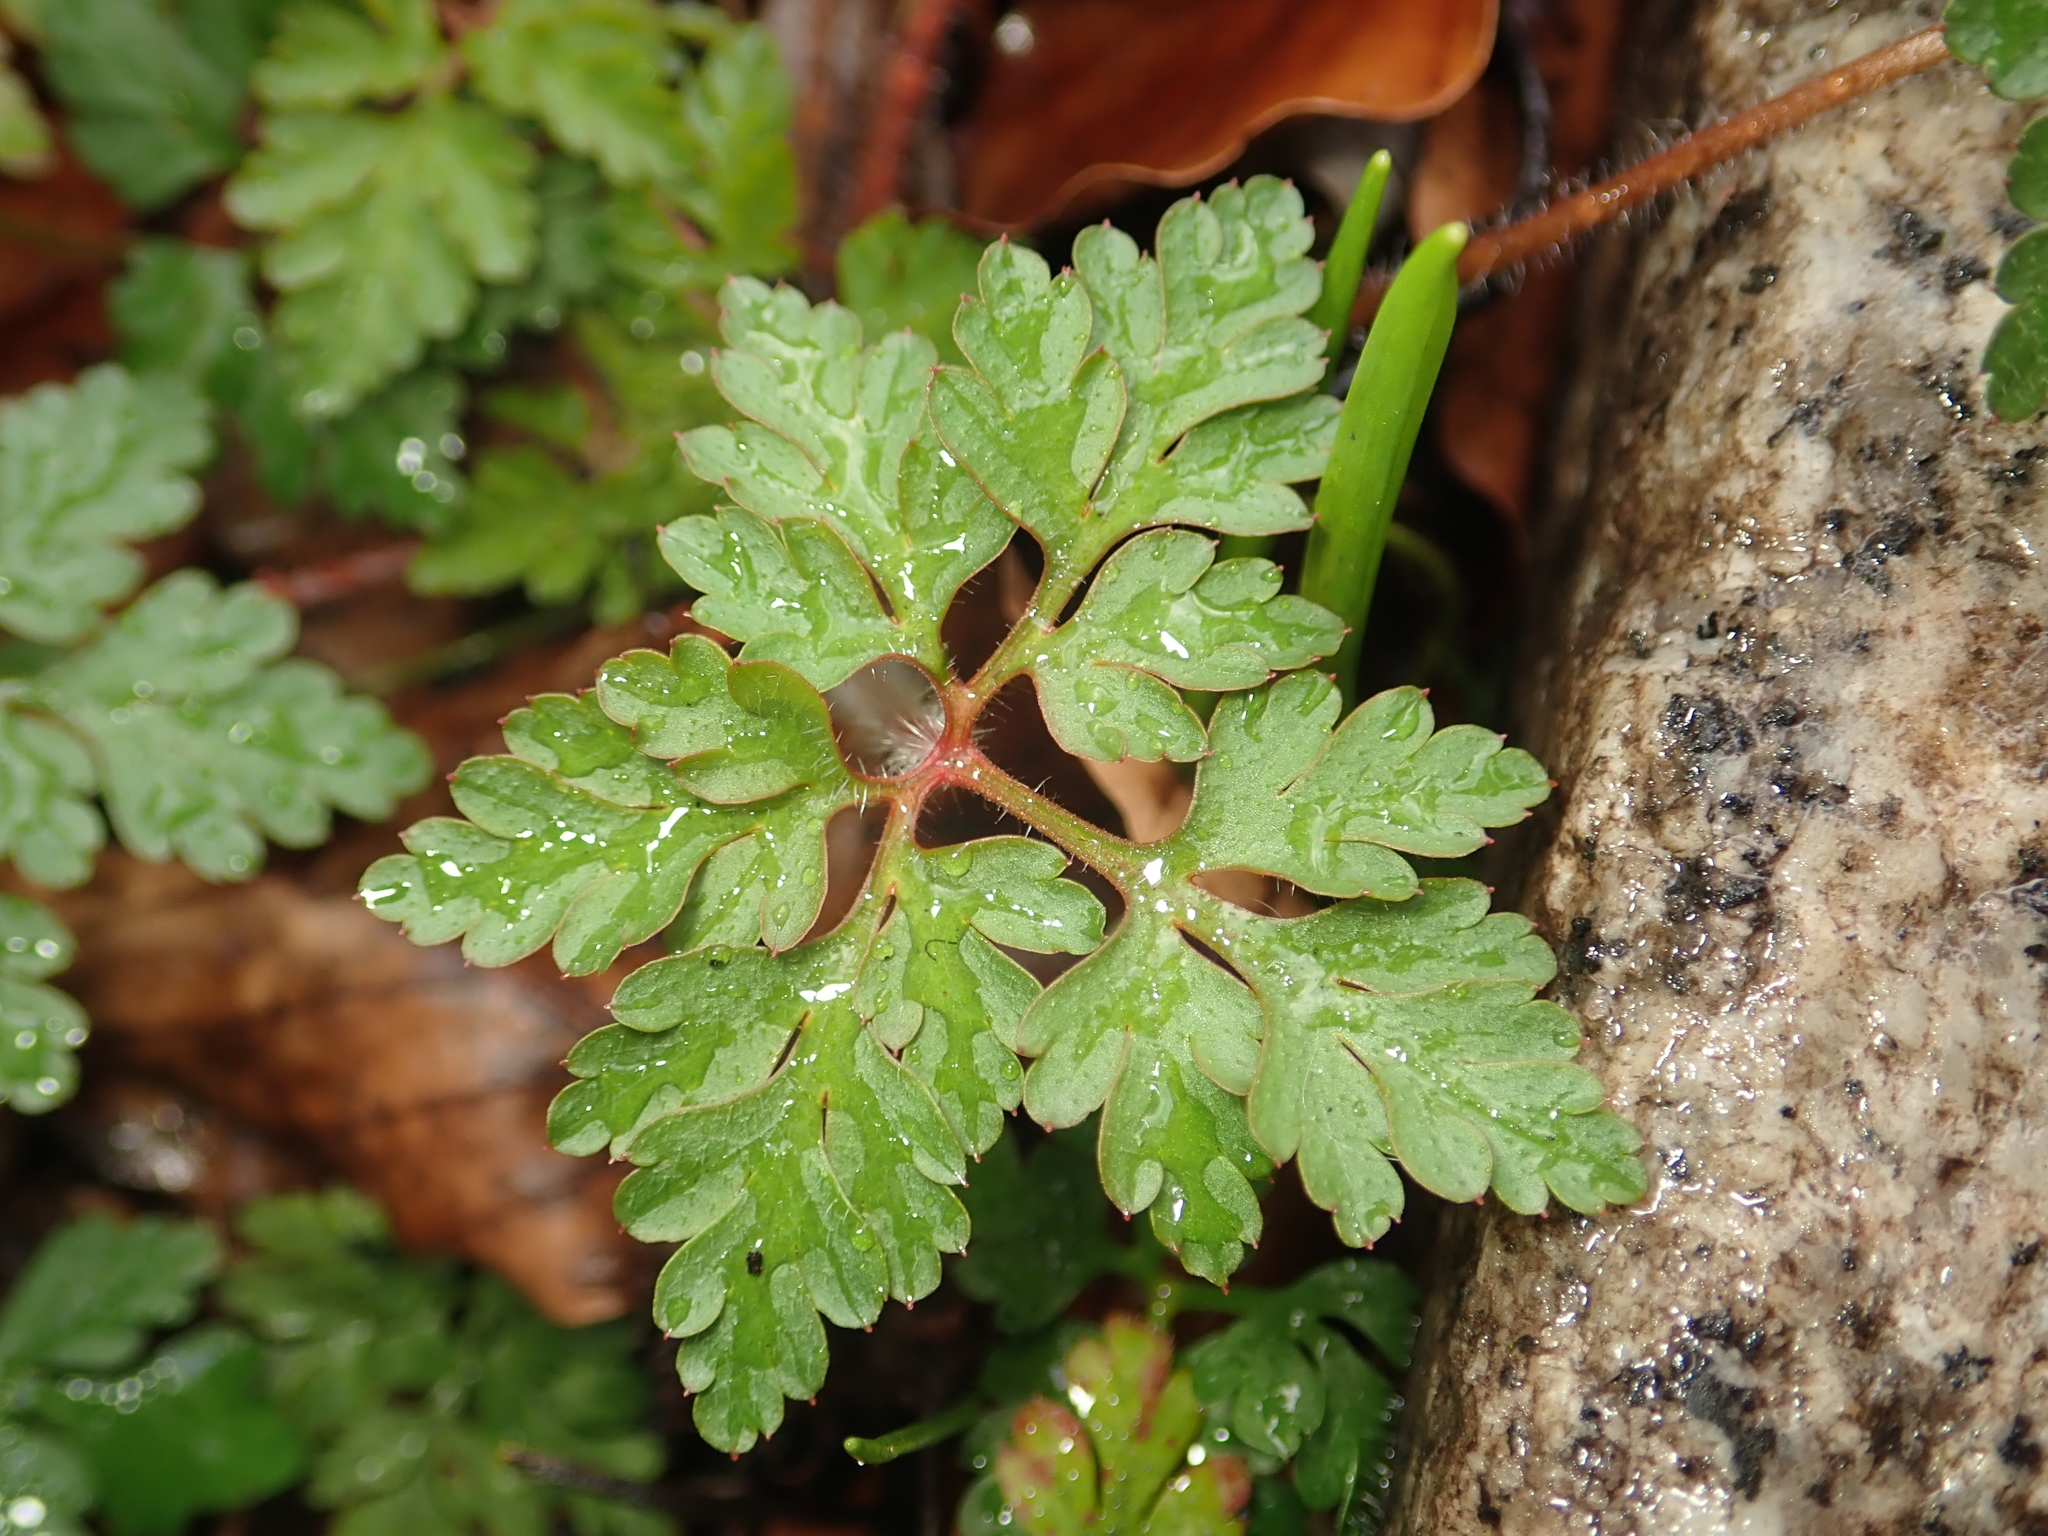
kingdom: Plantae
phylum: Tracheophyta
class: Magnoliopsida
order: Geraniales
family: Geraniaceae
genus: Geranium
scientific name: Geranium robertianum
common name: Herb-robert
